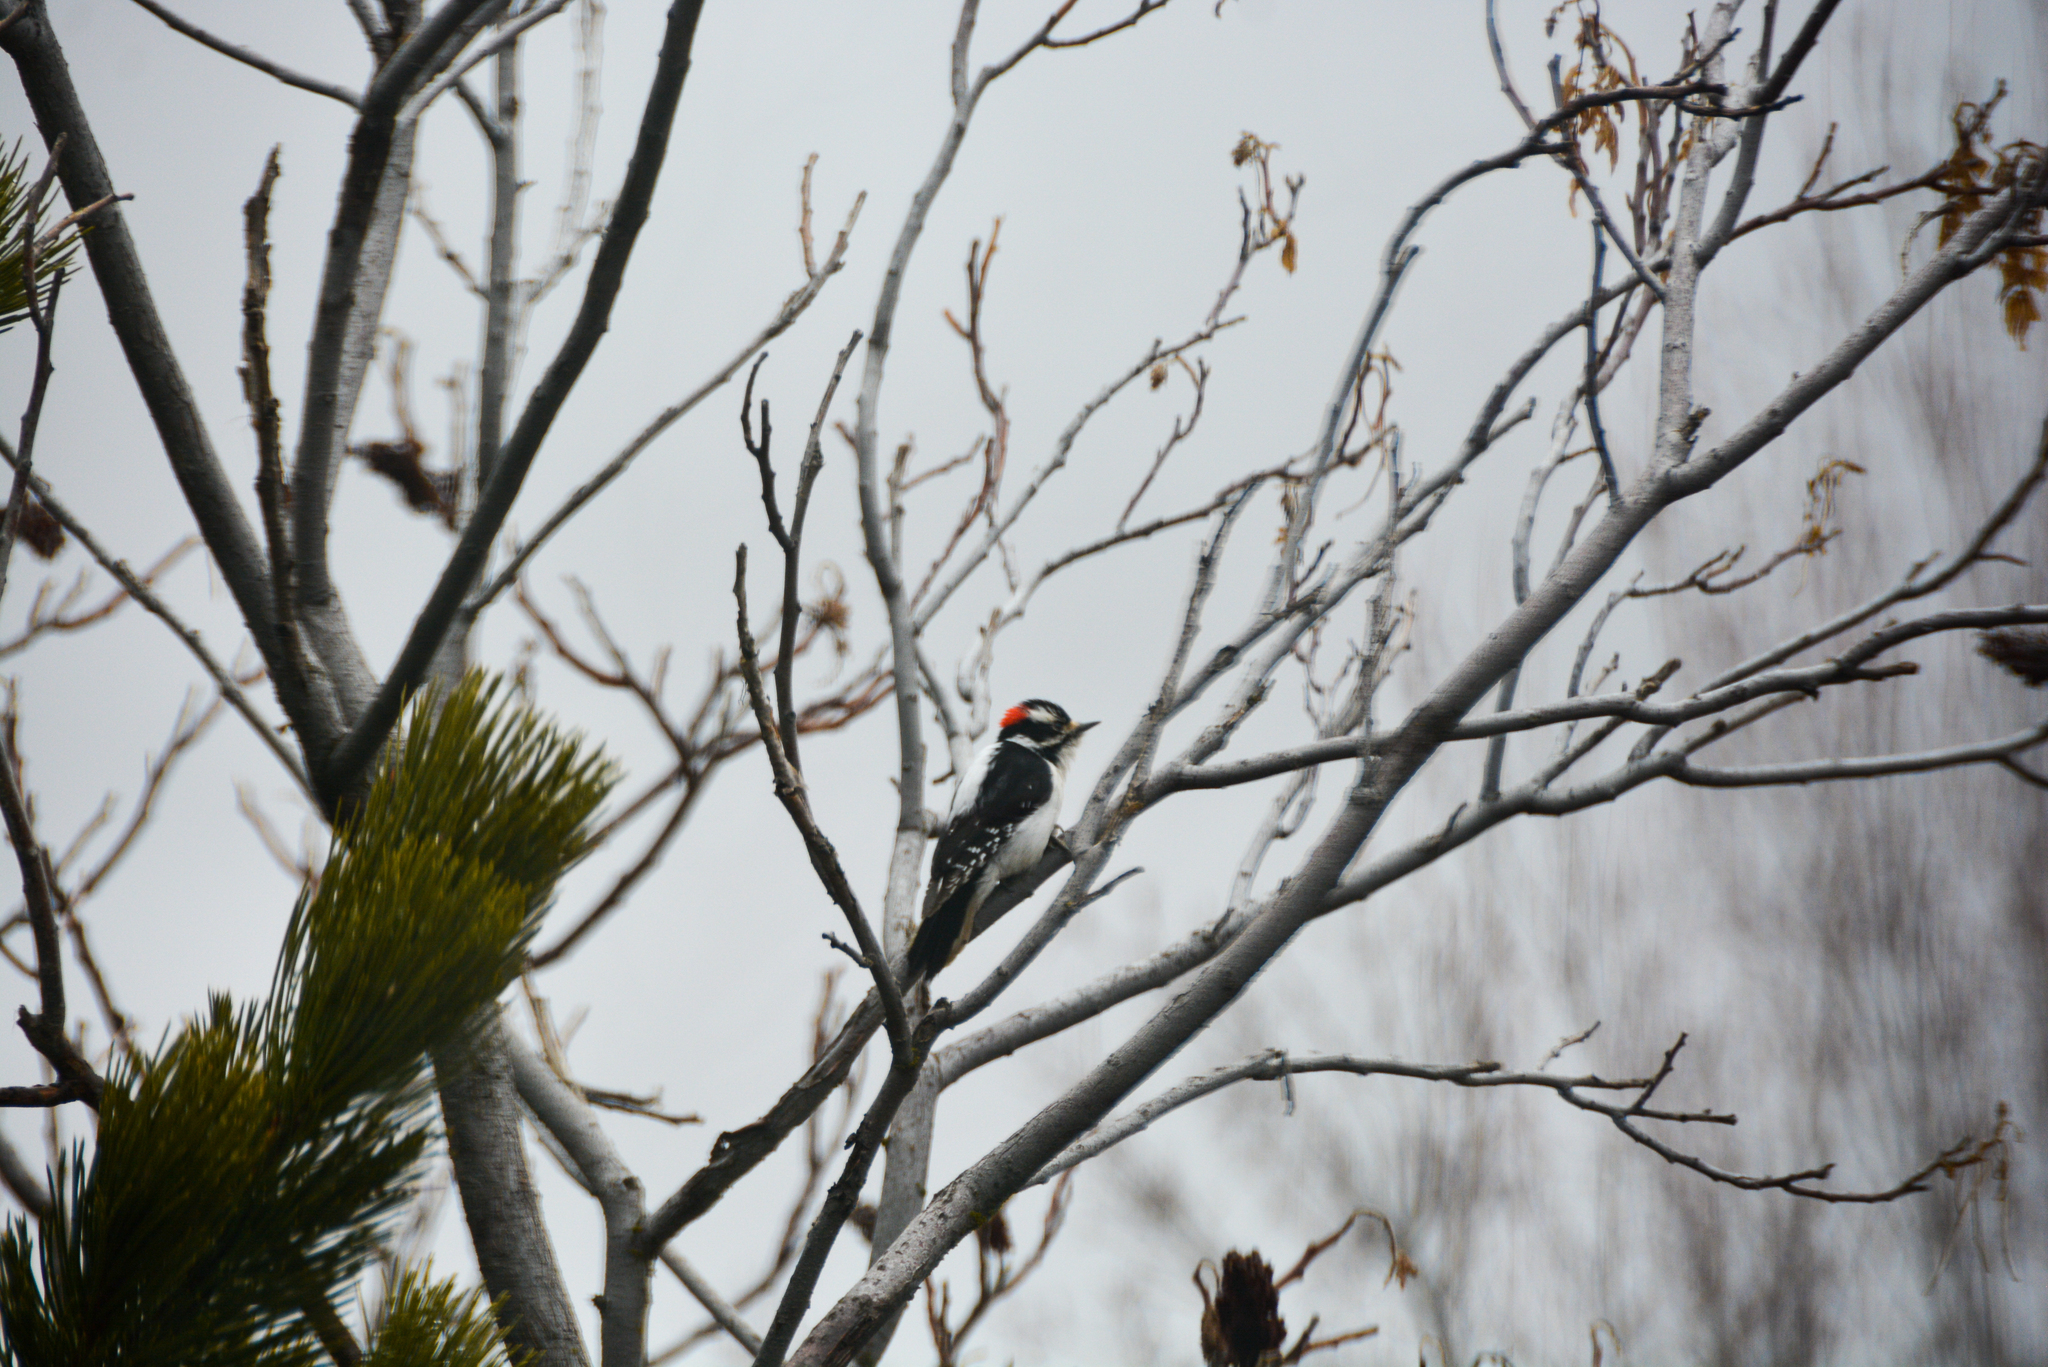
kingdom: Animalia
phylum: Chordata
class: Aves
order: Piciformes
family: Picidae
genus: Dryobates
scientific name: Dryobates pubescens
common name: Downy woodpecker
